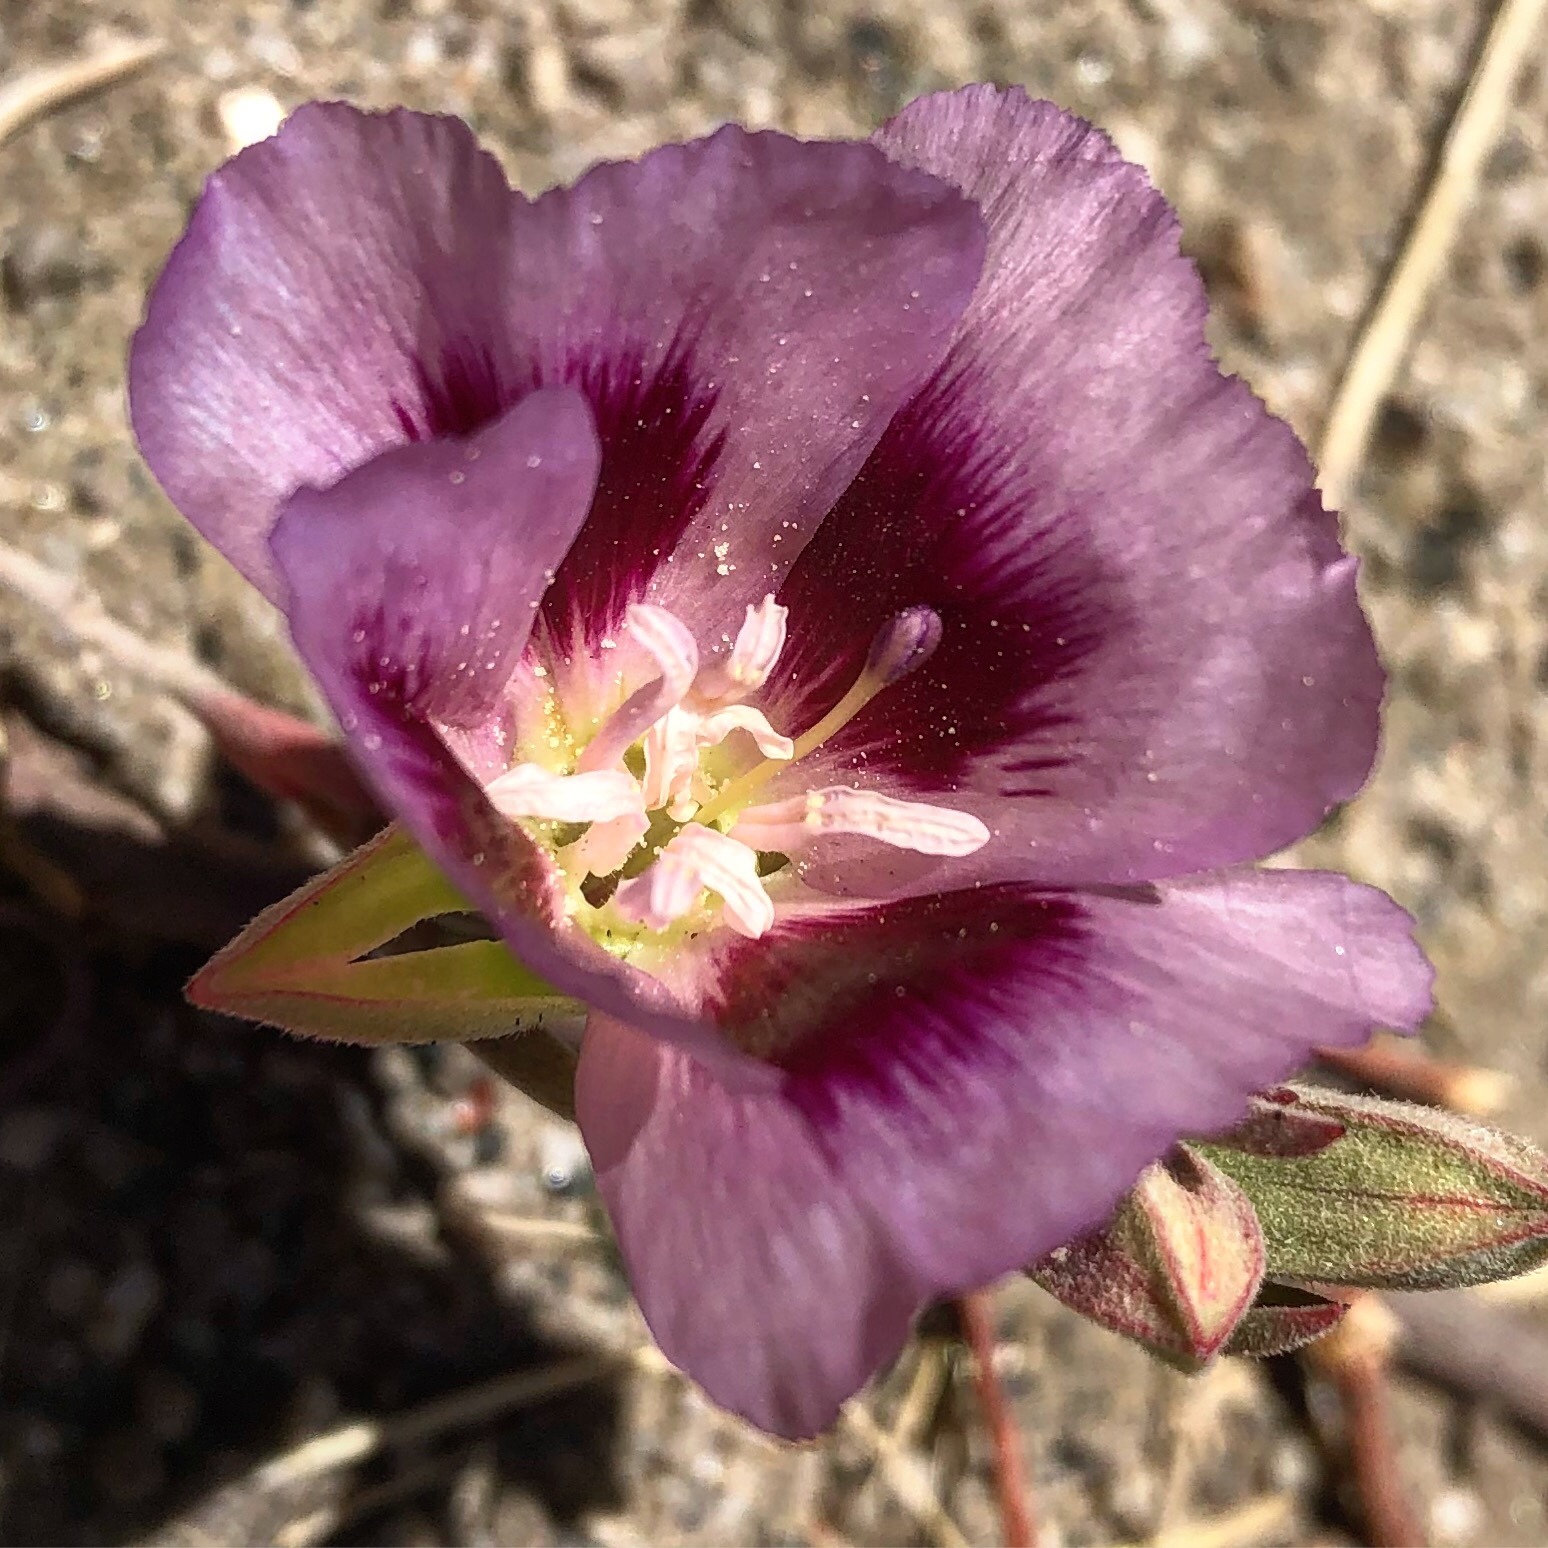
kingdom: Plantae
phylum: Tracheophyta
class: Magnoliopsida
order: Myrtales
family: Onagraceae
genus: Clarkia
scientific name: Clarkia speciosa
